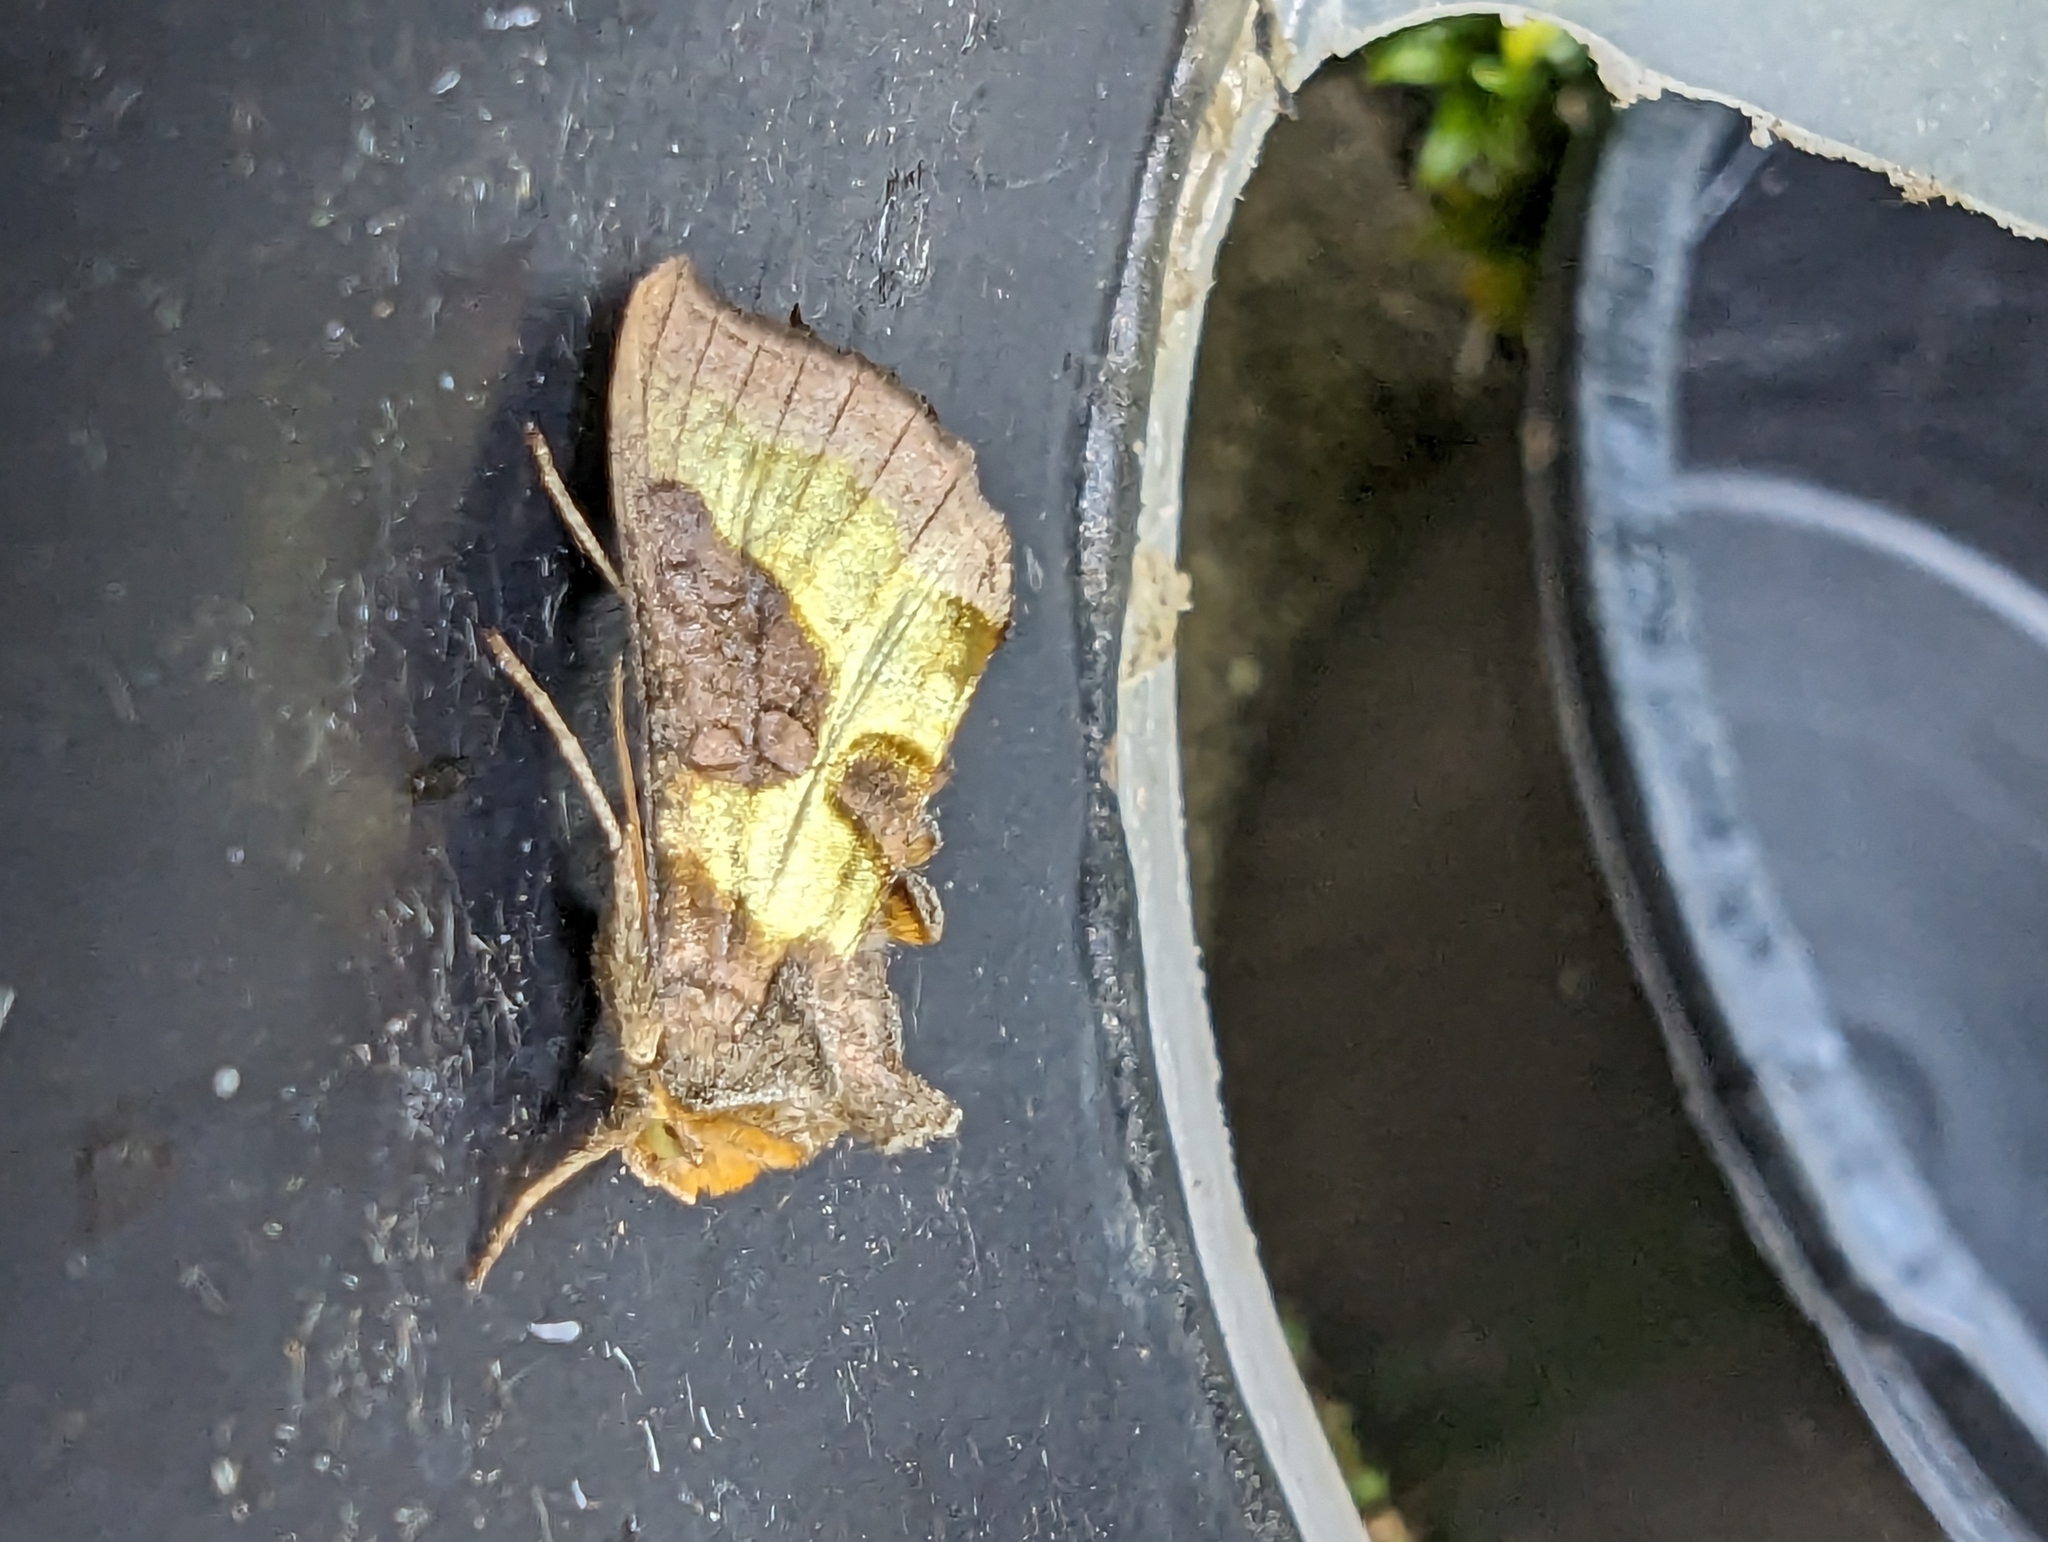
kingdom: Animalia
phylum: Arthropoda
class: Insecta
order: Lepidoptera
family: Noctuidae
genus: Diachrysia
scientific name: Diachrysia chrysitis
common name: Burnished brass
